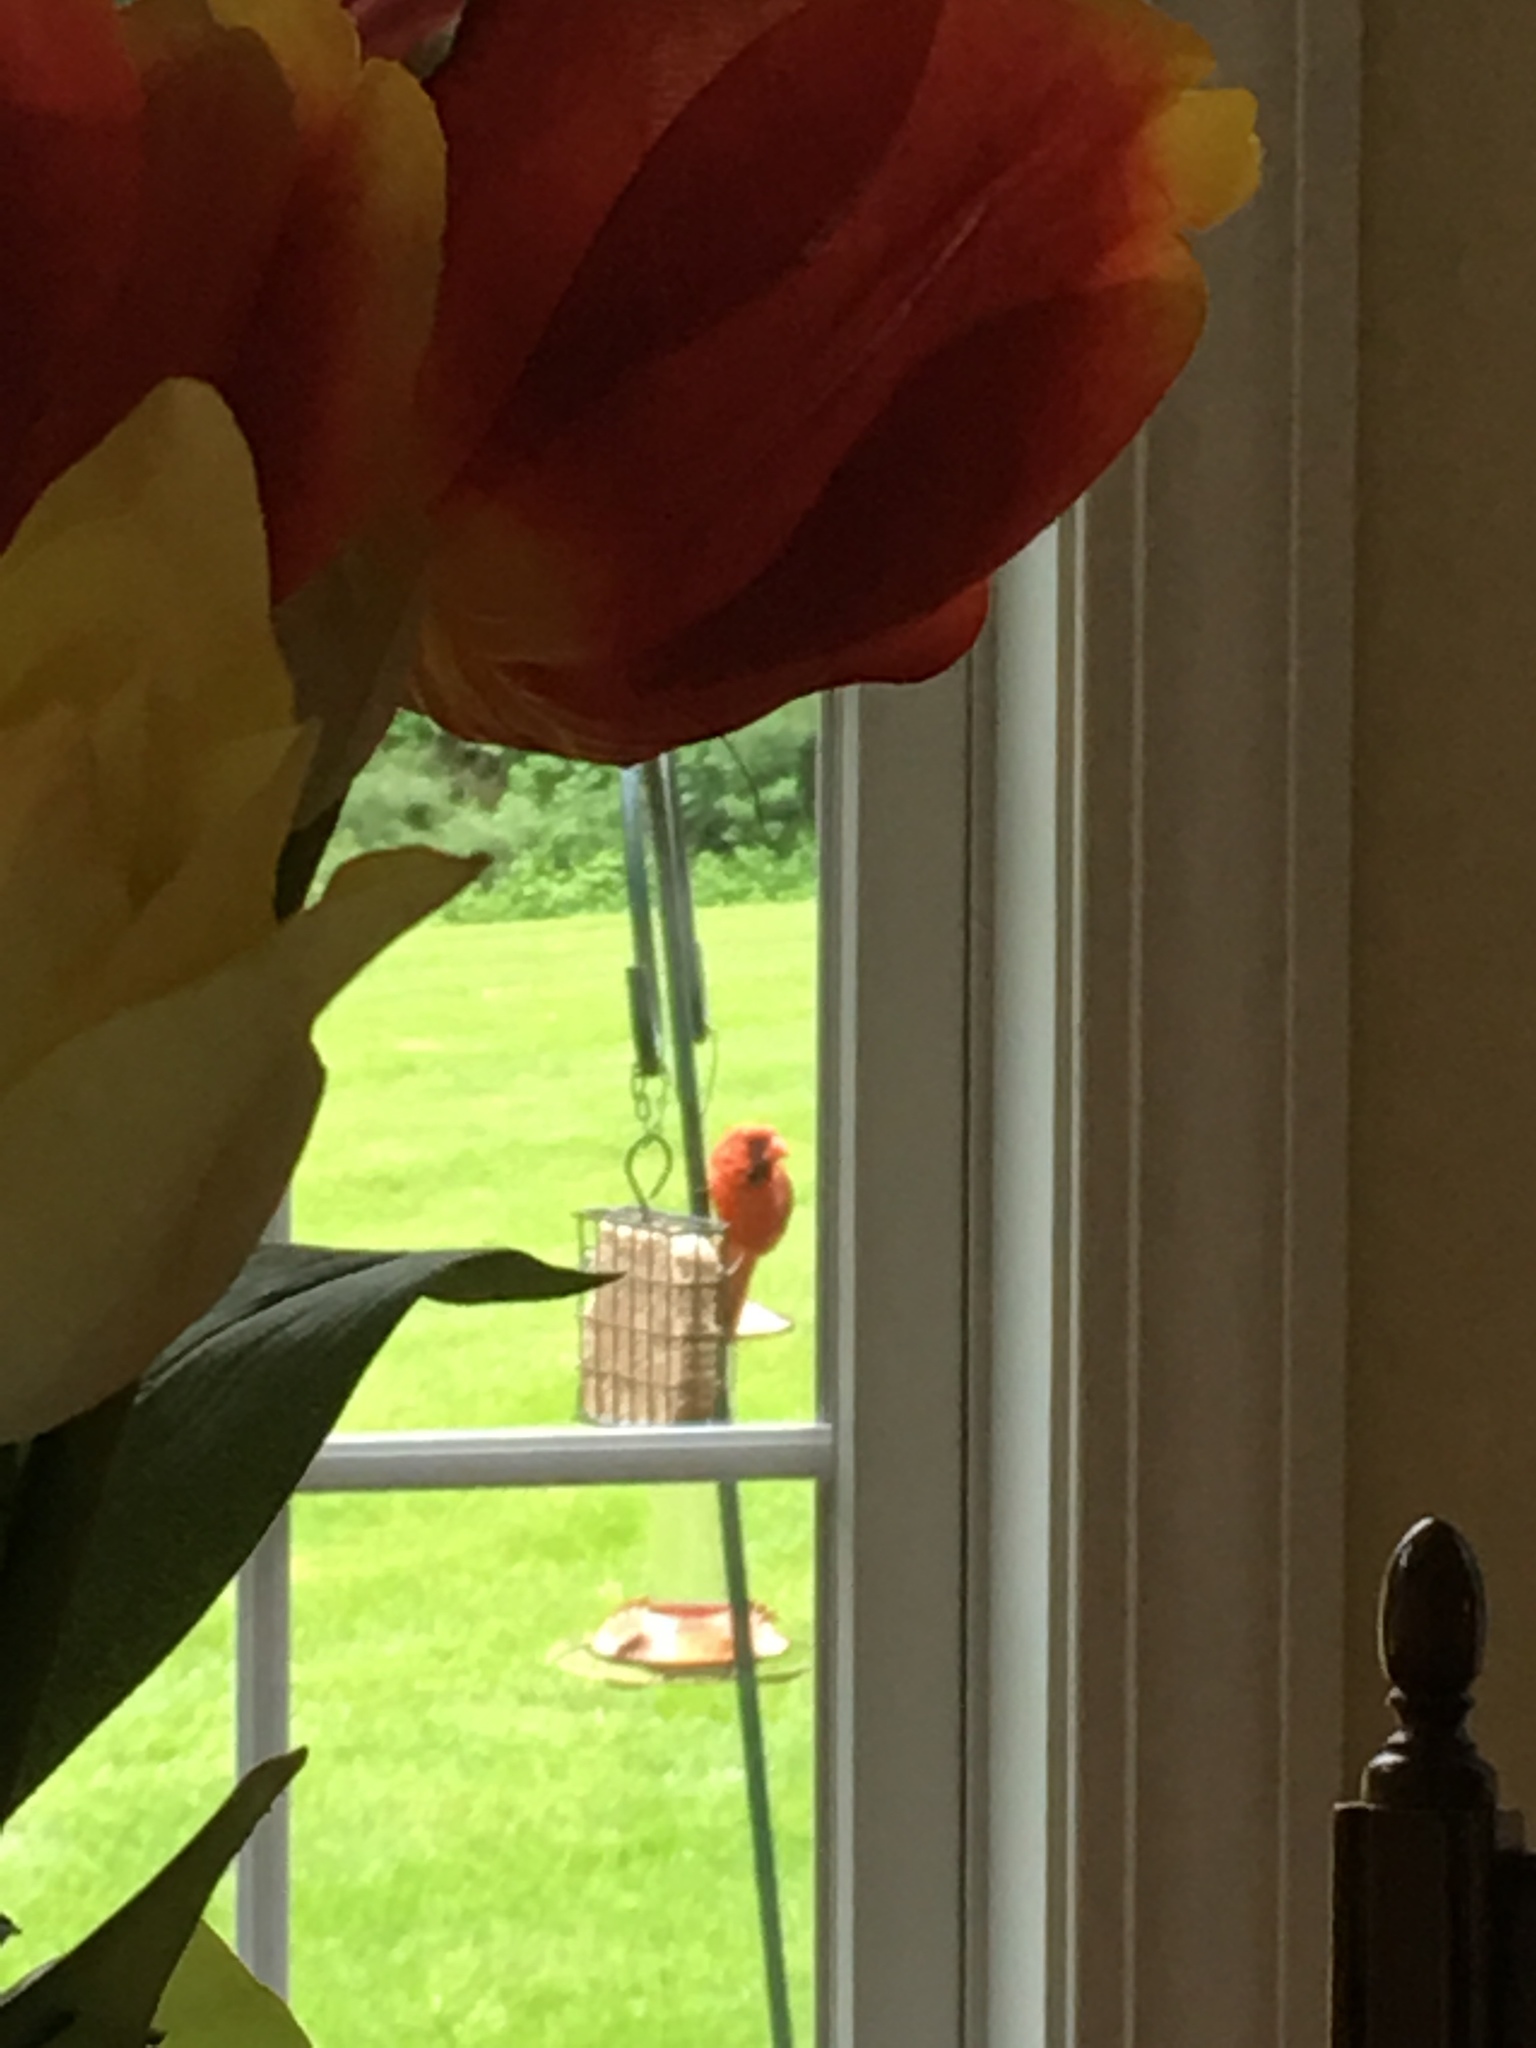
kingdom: Animalia
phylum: Chordata
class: Aves
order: Passeriformes
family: Cardinalidae
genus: Cardinalis
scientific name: Cardinalis cardinalis
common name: Northern cardinal
